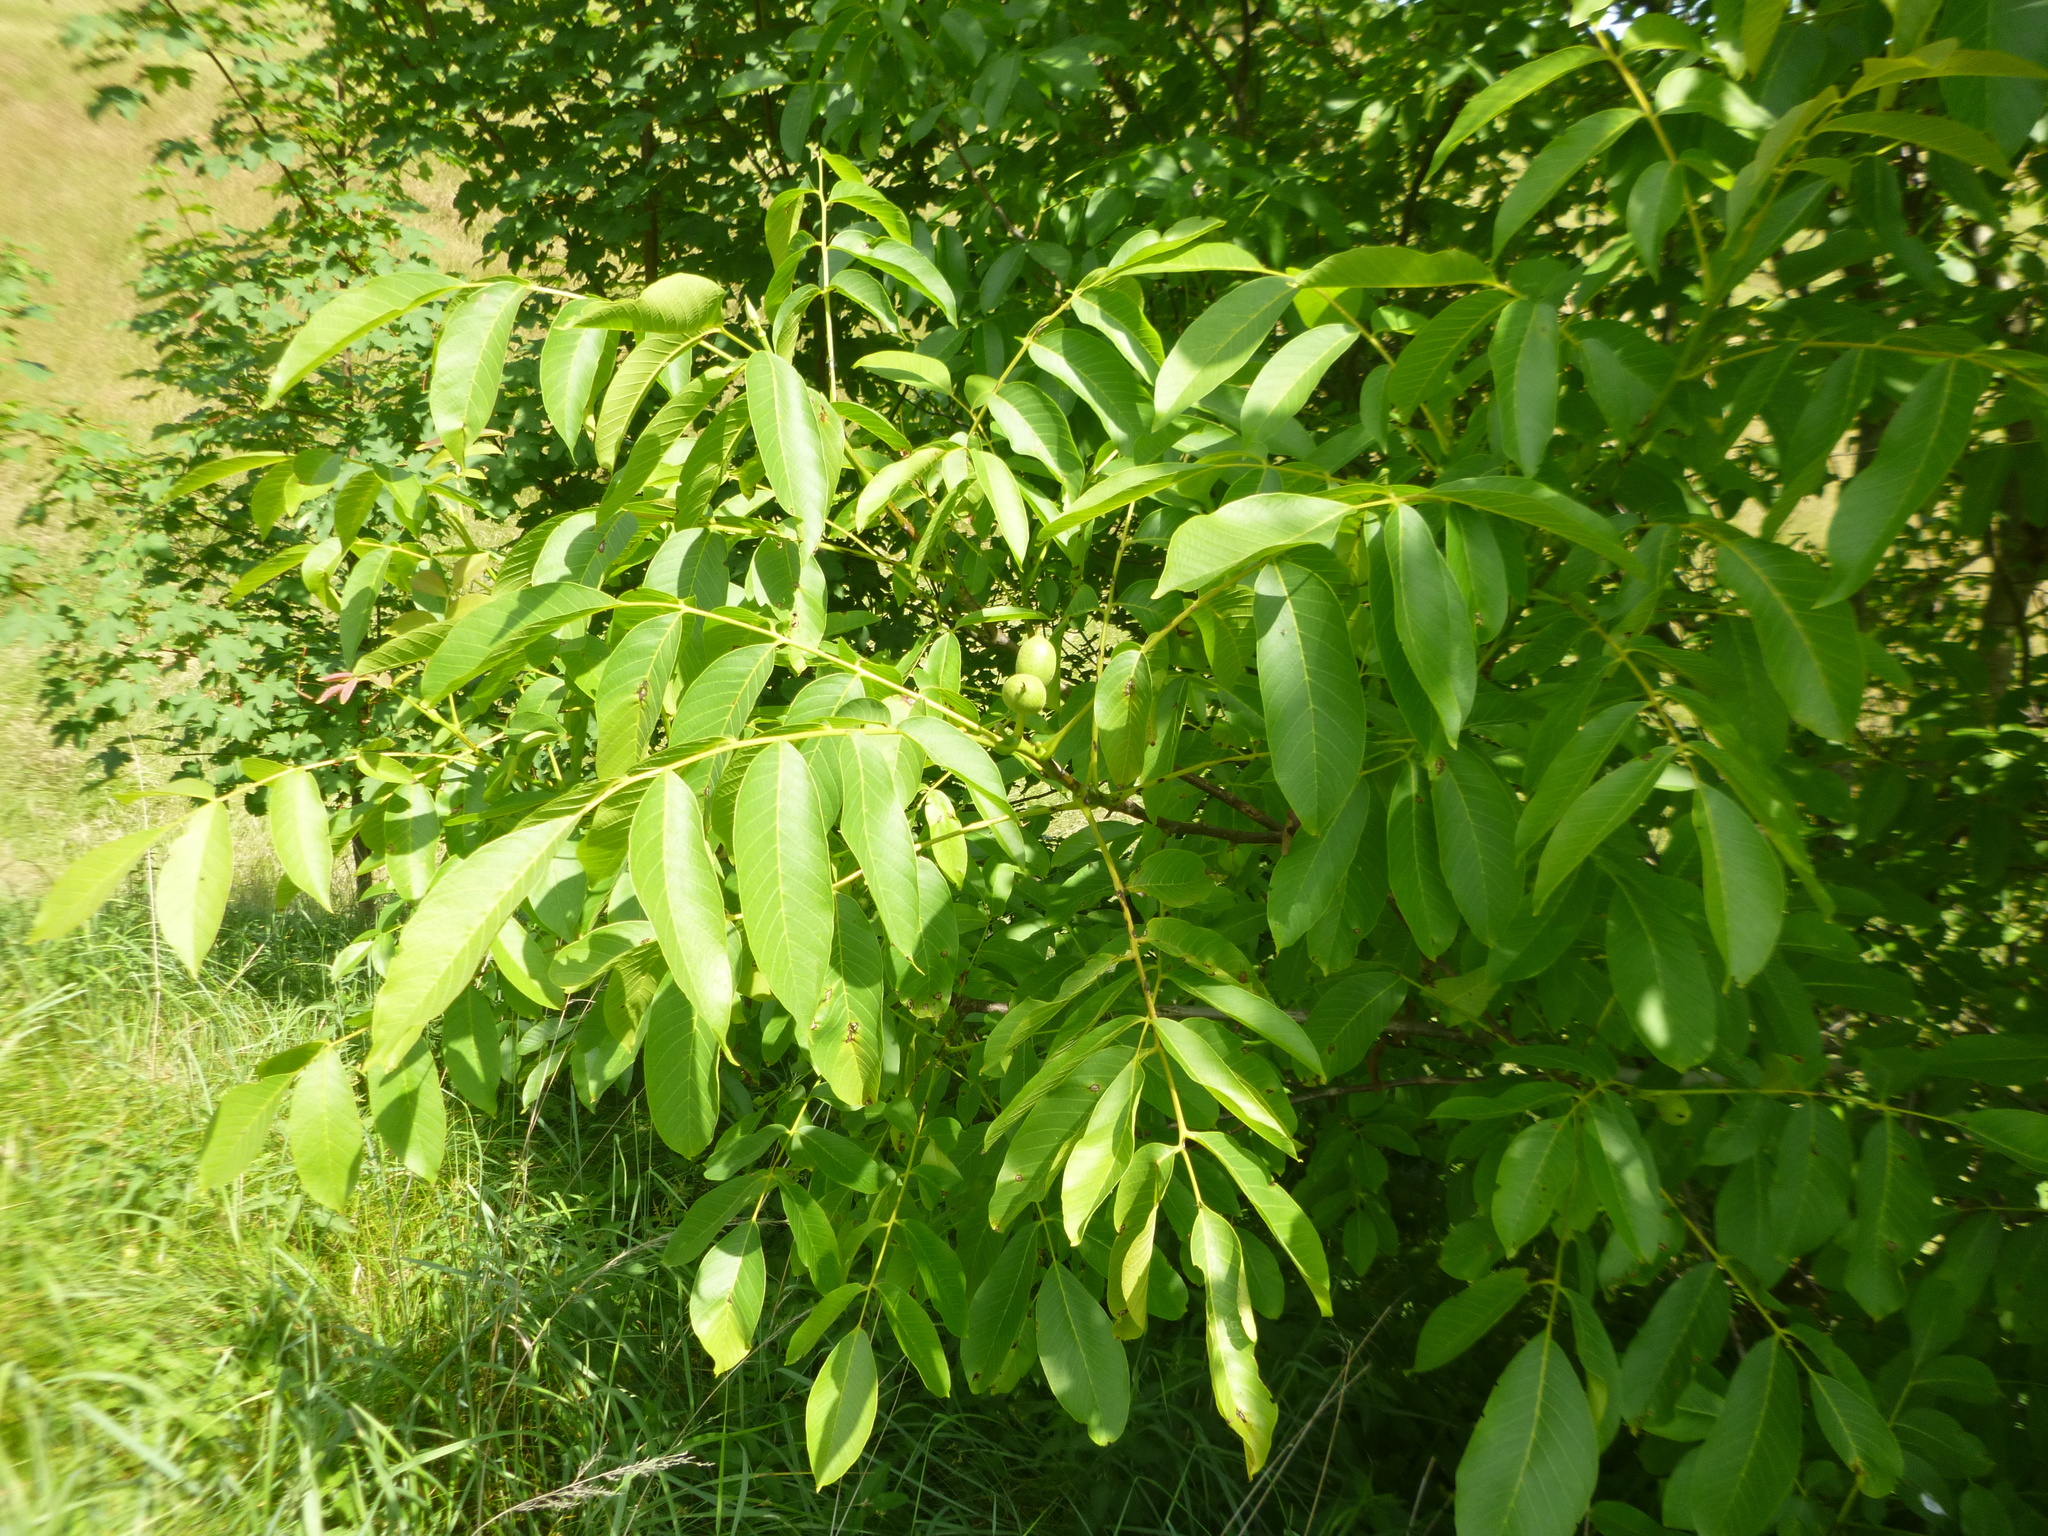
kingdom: Plantae
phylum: Tracheophyta
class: Magnoliopsida
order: Fagales
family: Juglandaceae
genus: Juglans
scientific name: Juglans regia
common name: Walnut
